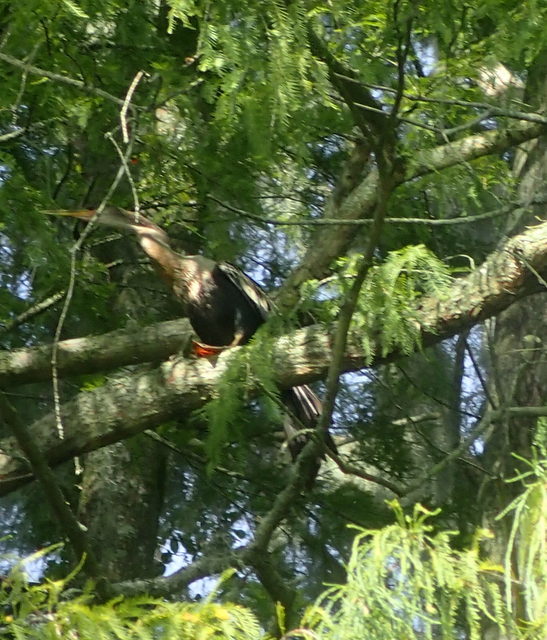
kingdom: Animalia
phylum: Chordata
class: Aves
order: Suliformes
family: Anhingidae
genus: Anhinga
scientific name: Anhinga anhinga
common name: Anhinga
